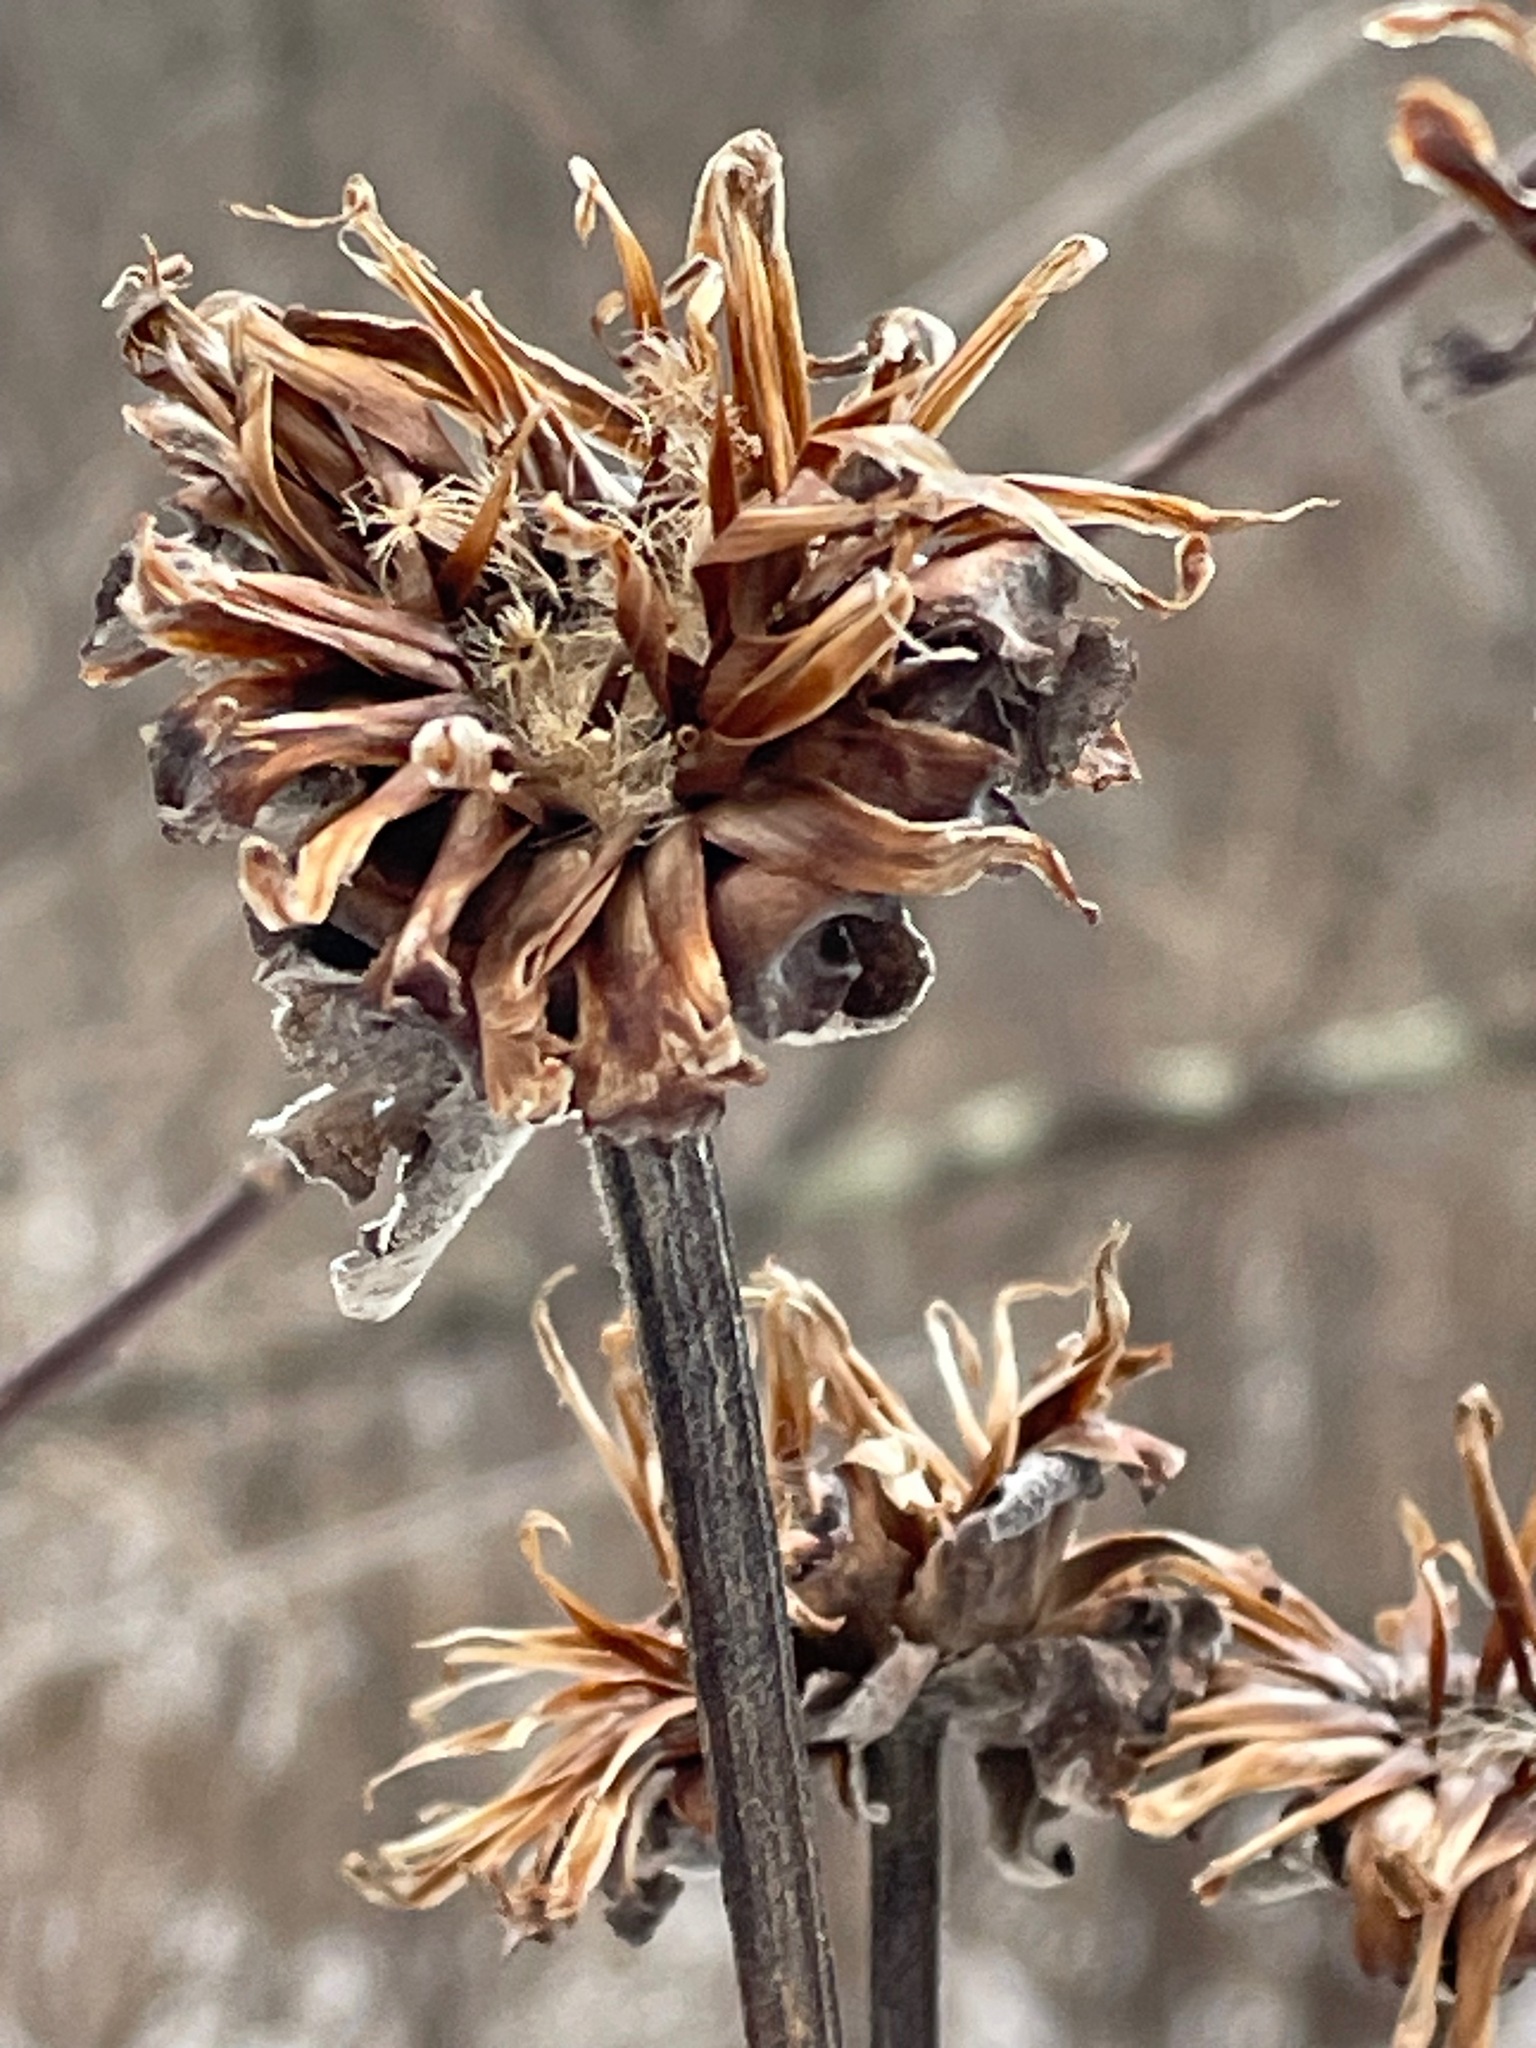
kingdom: Plantae
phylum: Tracheophyta
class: Magnoliopsida
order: Asterales
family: Asteraceae
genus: Inula
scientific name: Inula helenium
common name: Elecampane
